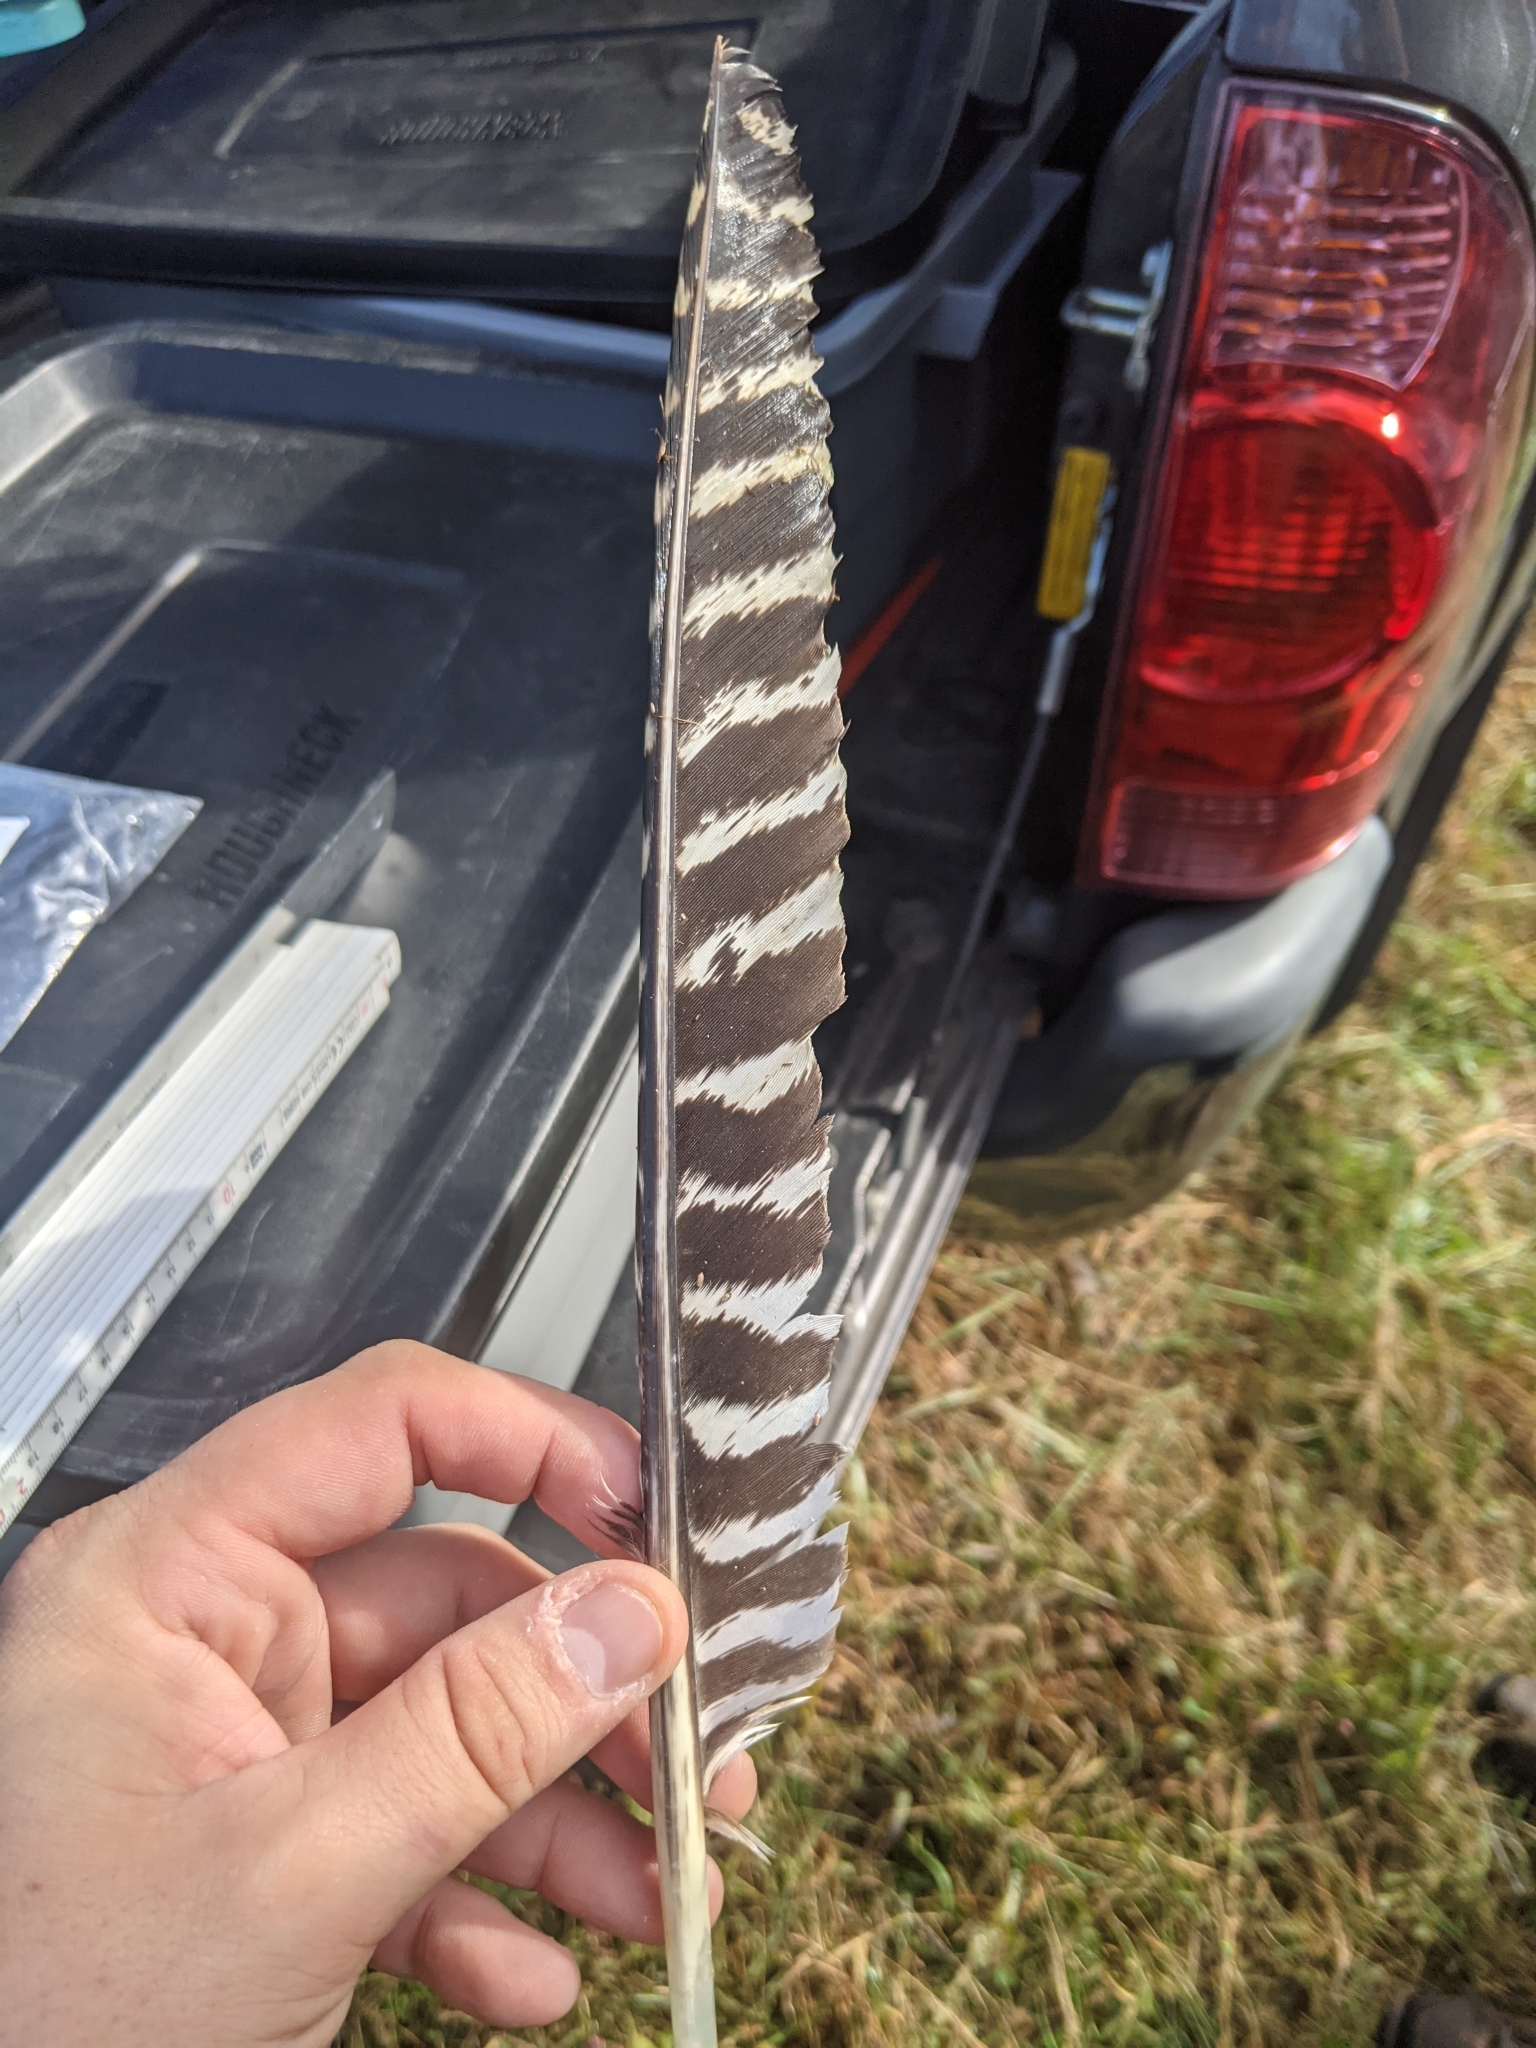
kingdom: Animalia
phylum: Chordata
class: Aves
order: Galliformes
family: Phasianidae
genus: Meleagris
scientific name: Meleagris gallopavo
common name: Wild turkey
